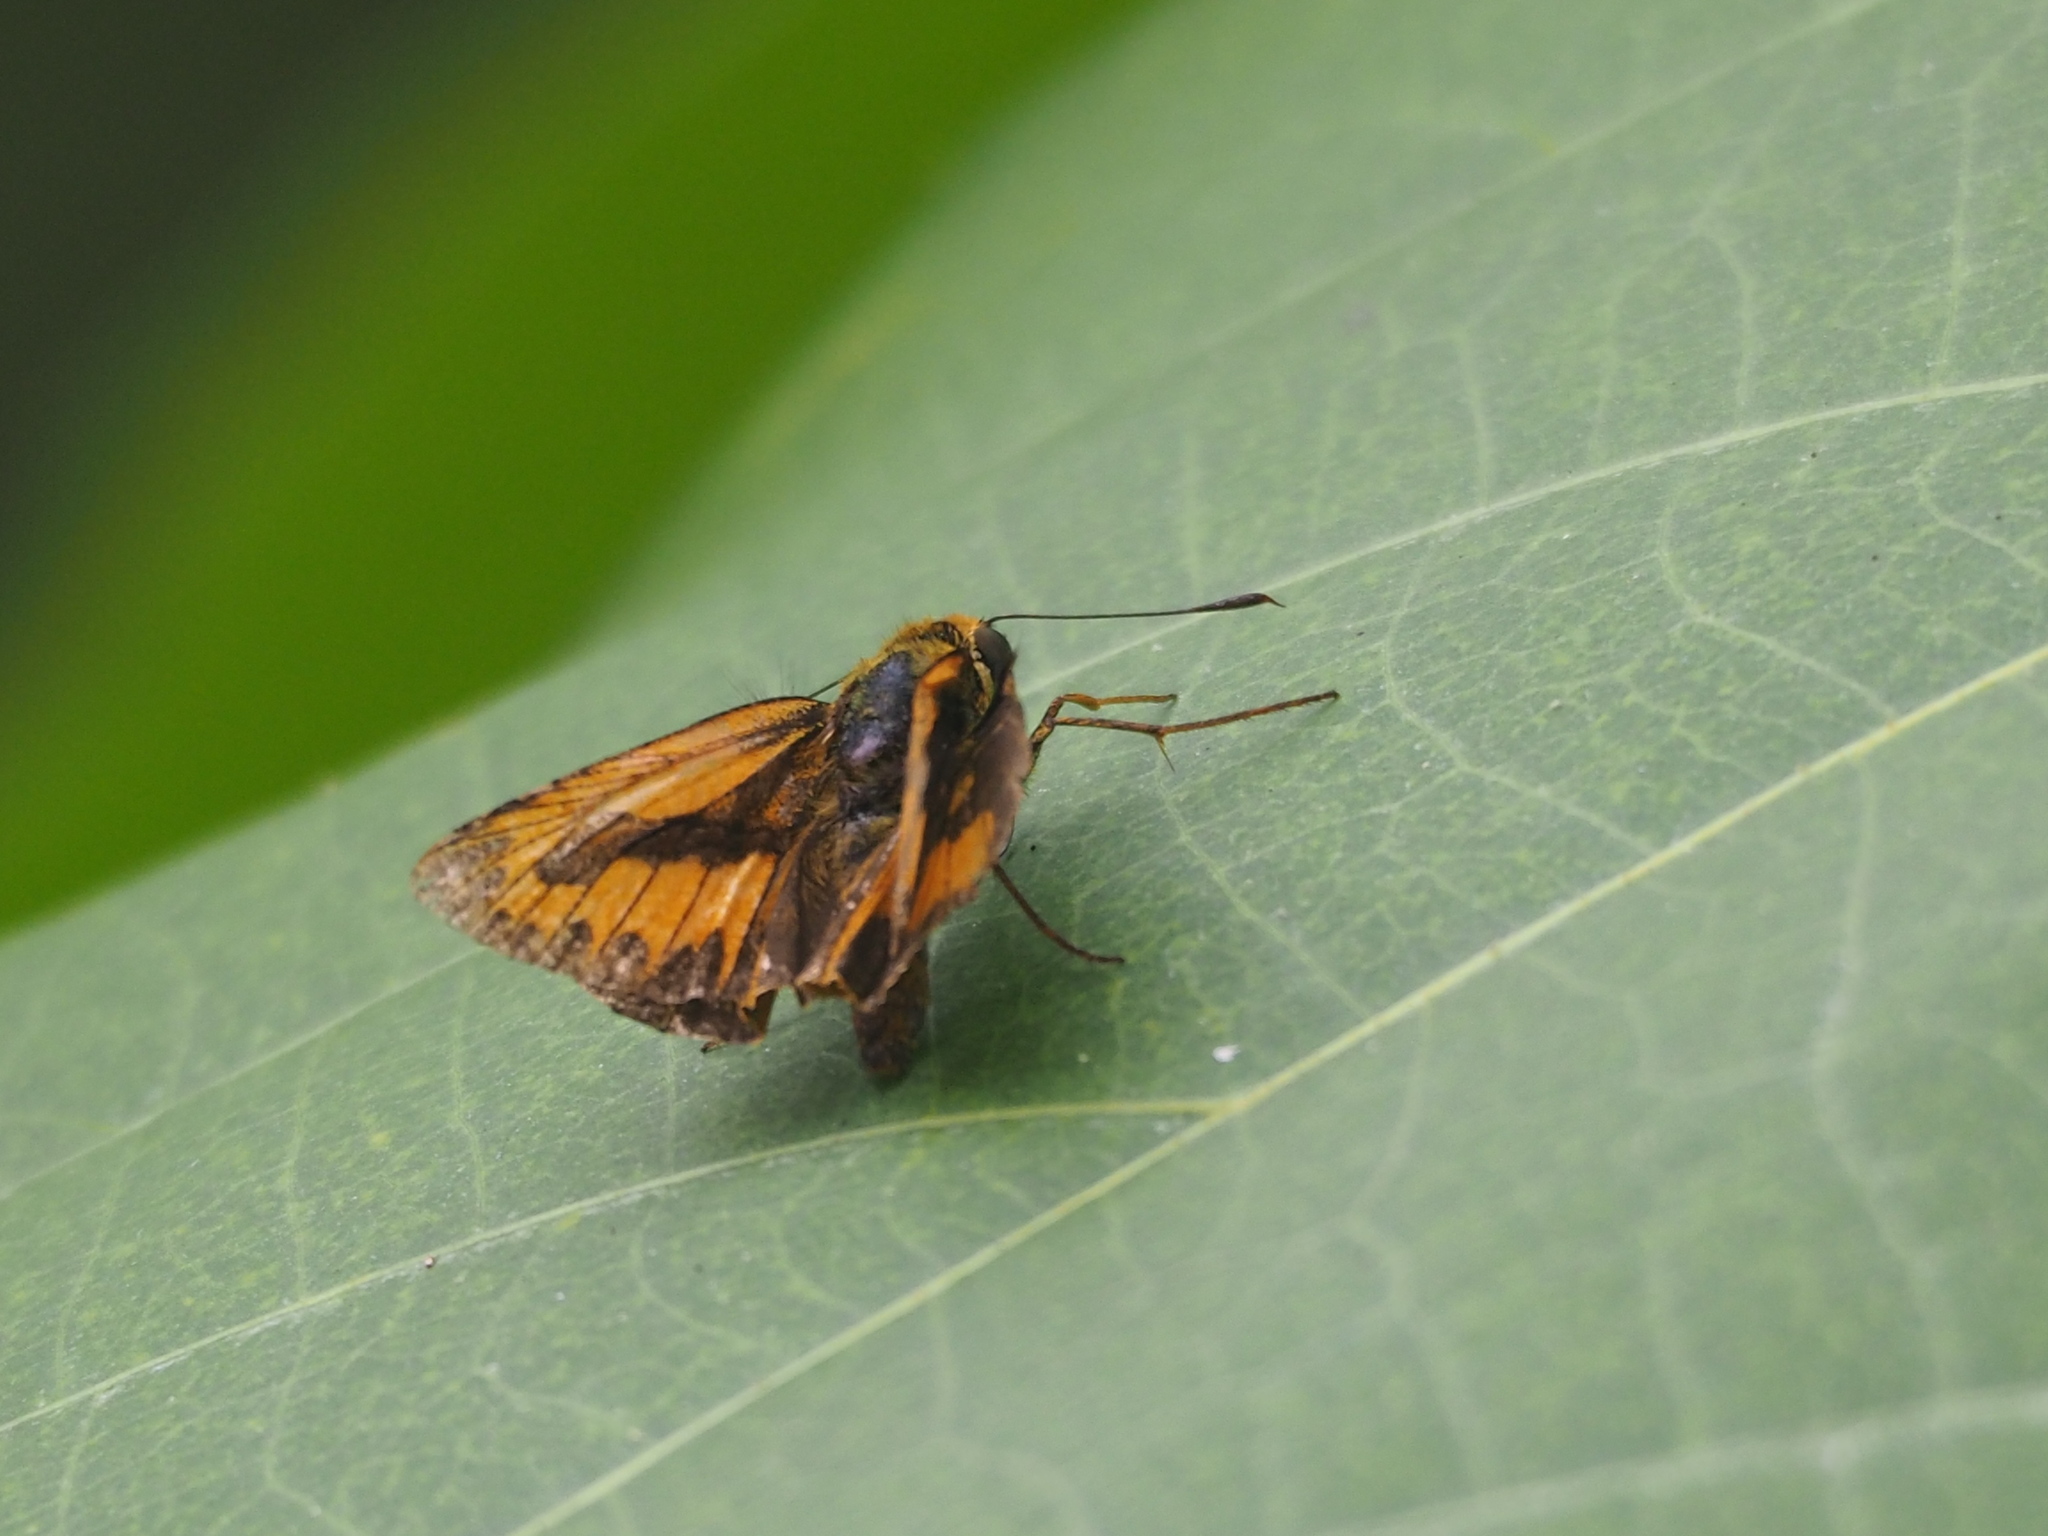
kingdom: Animalia
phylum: Arthropoda
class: Insecta
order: Lepidoptera
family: Hesperiidae
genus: Telicota
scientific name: Telicota bambusae
